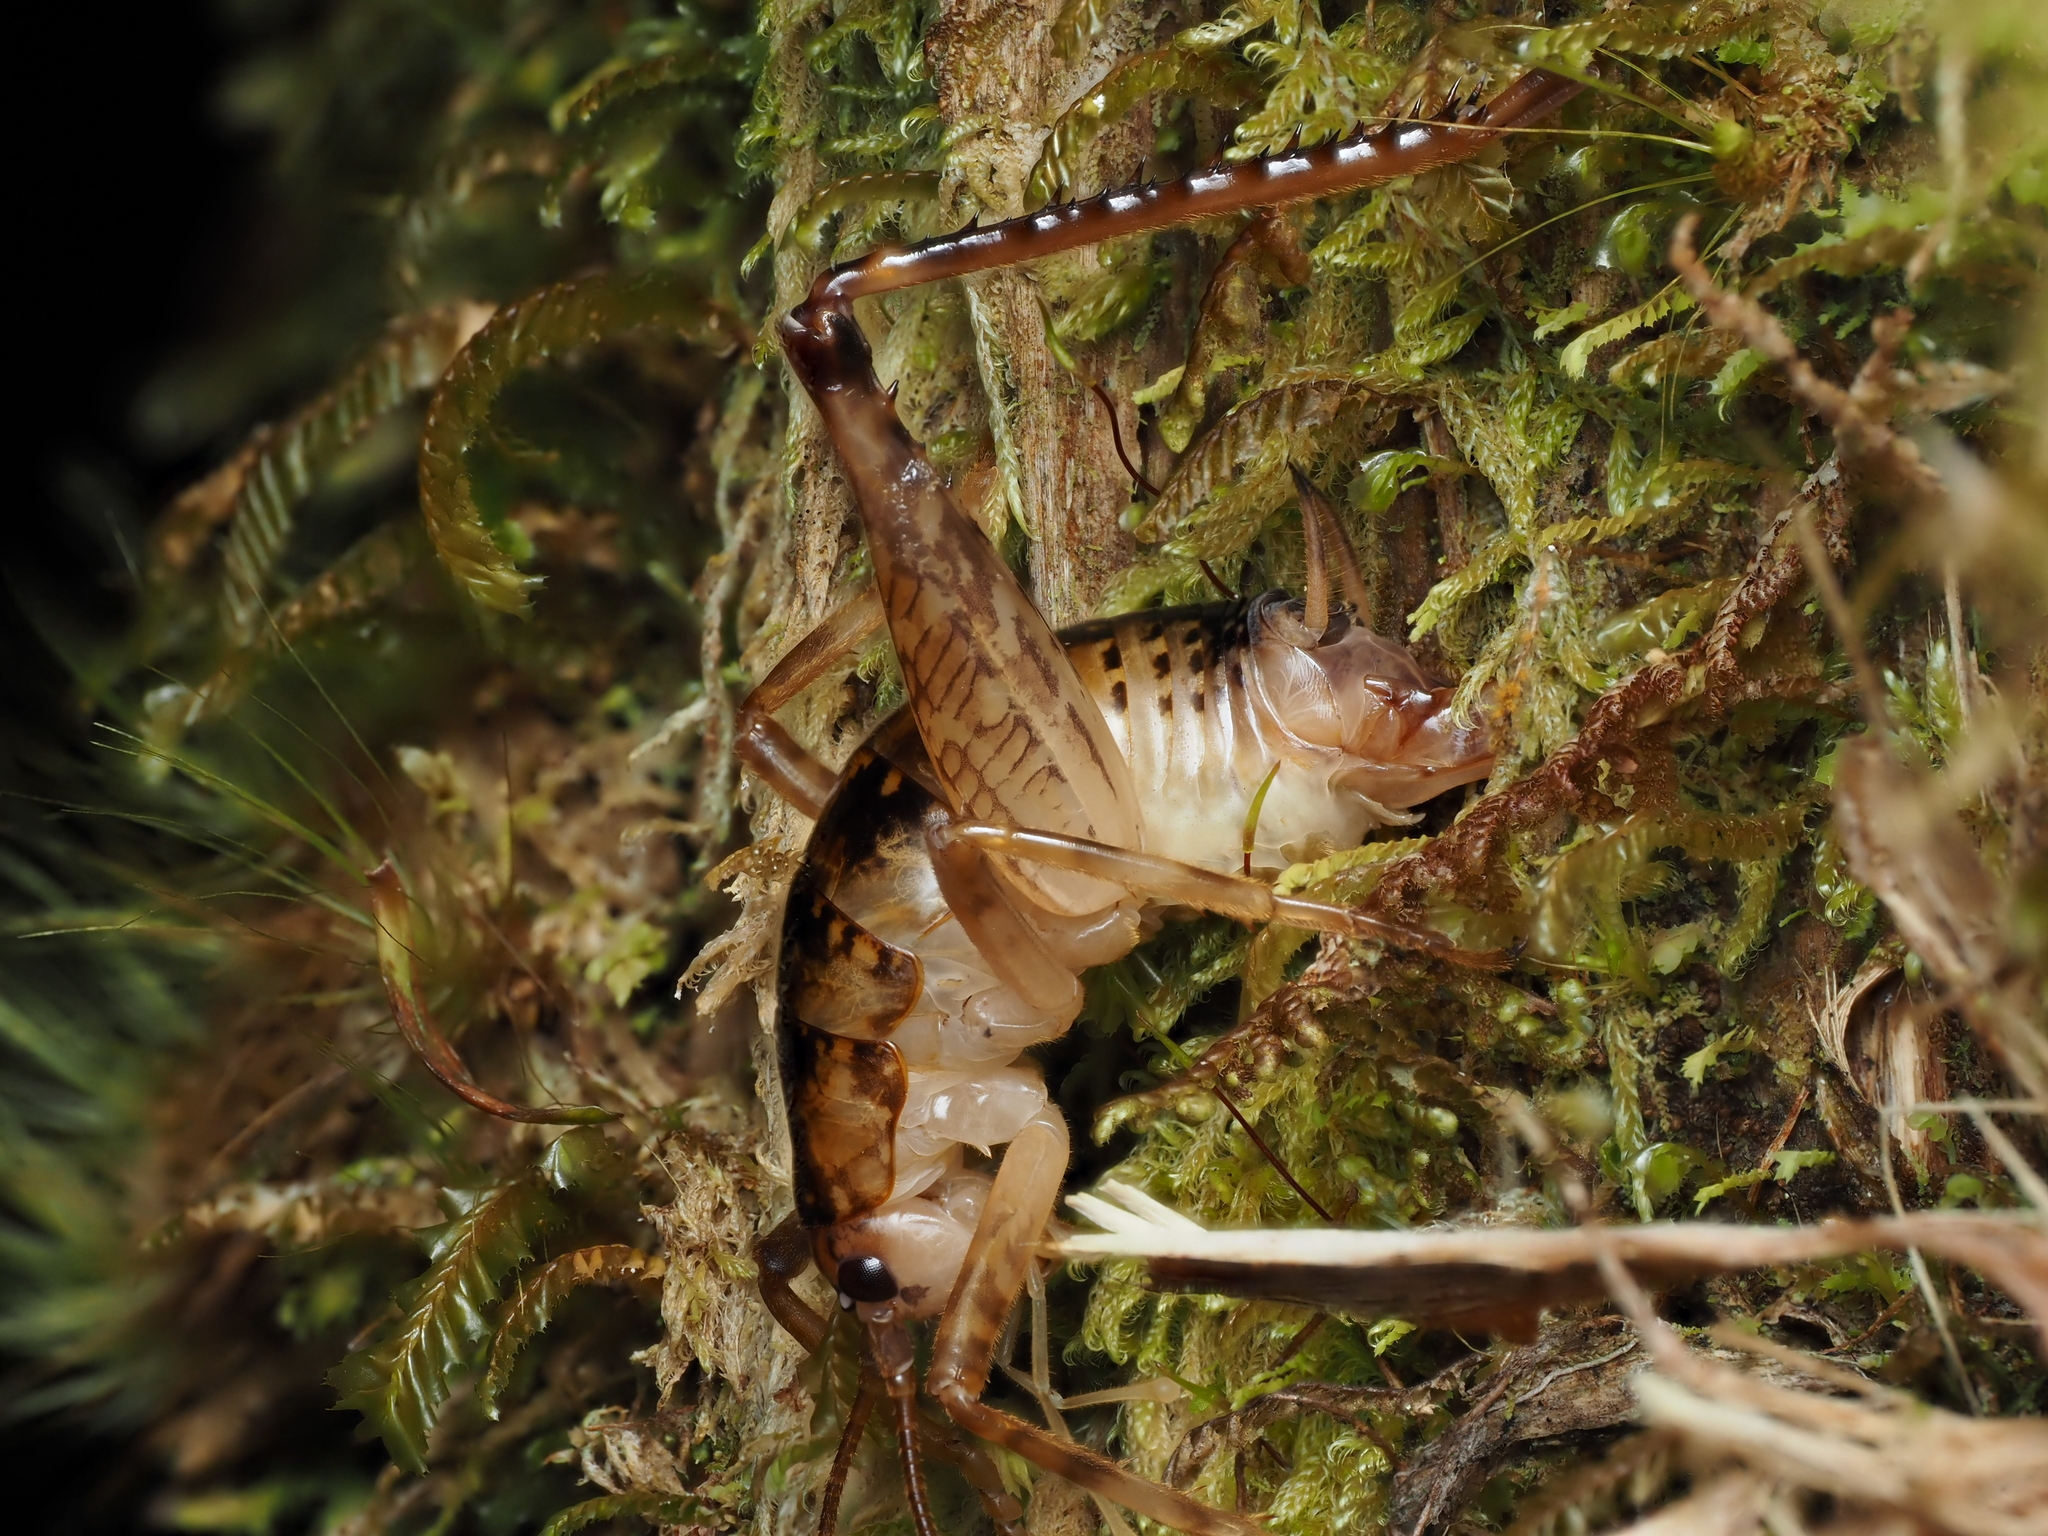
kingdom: Animalia
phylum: Arthropoda
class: Insecta
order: Orthoptera
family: Rhaphidophoridae
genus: Talitropsis
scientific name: Talitropsis sedilloti
